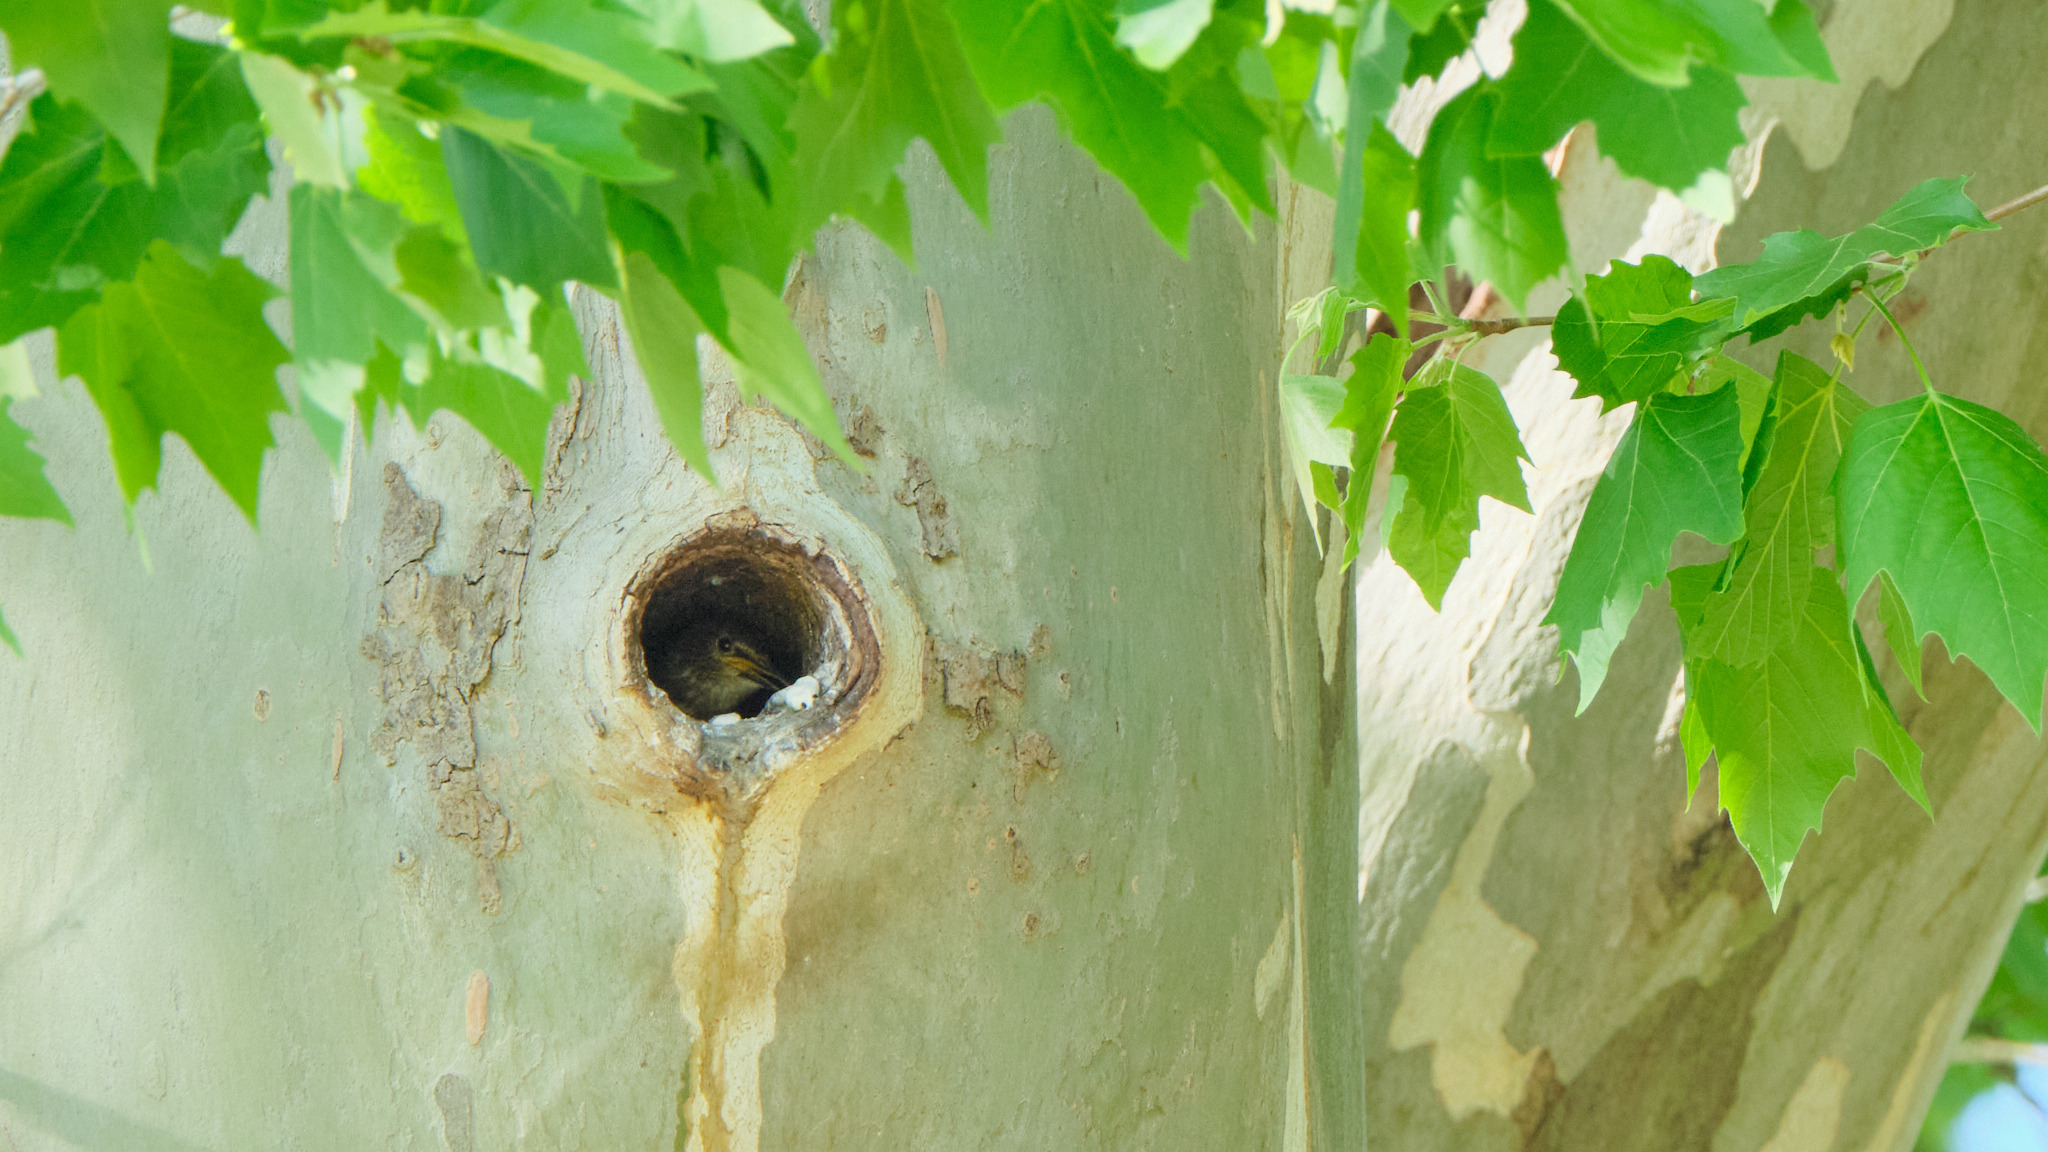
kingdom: Animalia
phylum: Chordata
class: Aves
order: Passeriformes
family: Sturnidae
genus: Sturnus
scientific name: Sturnus vulgaris
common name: Common starling
